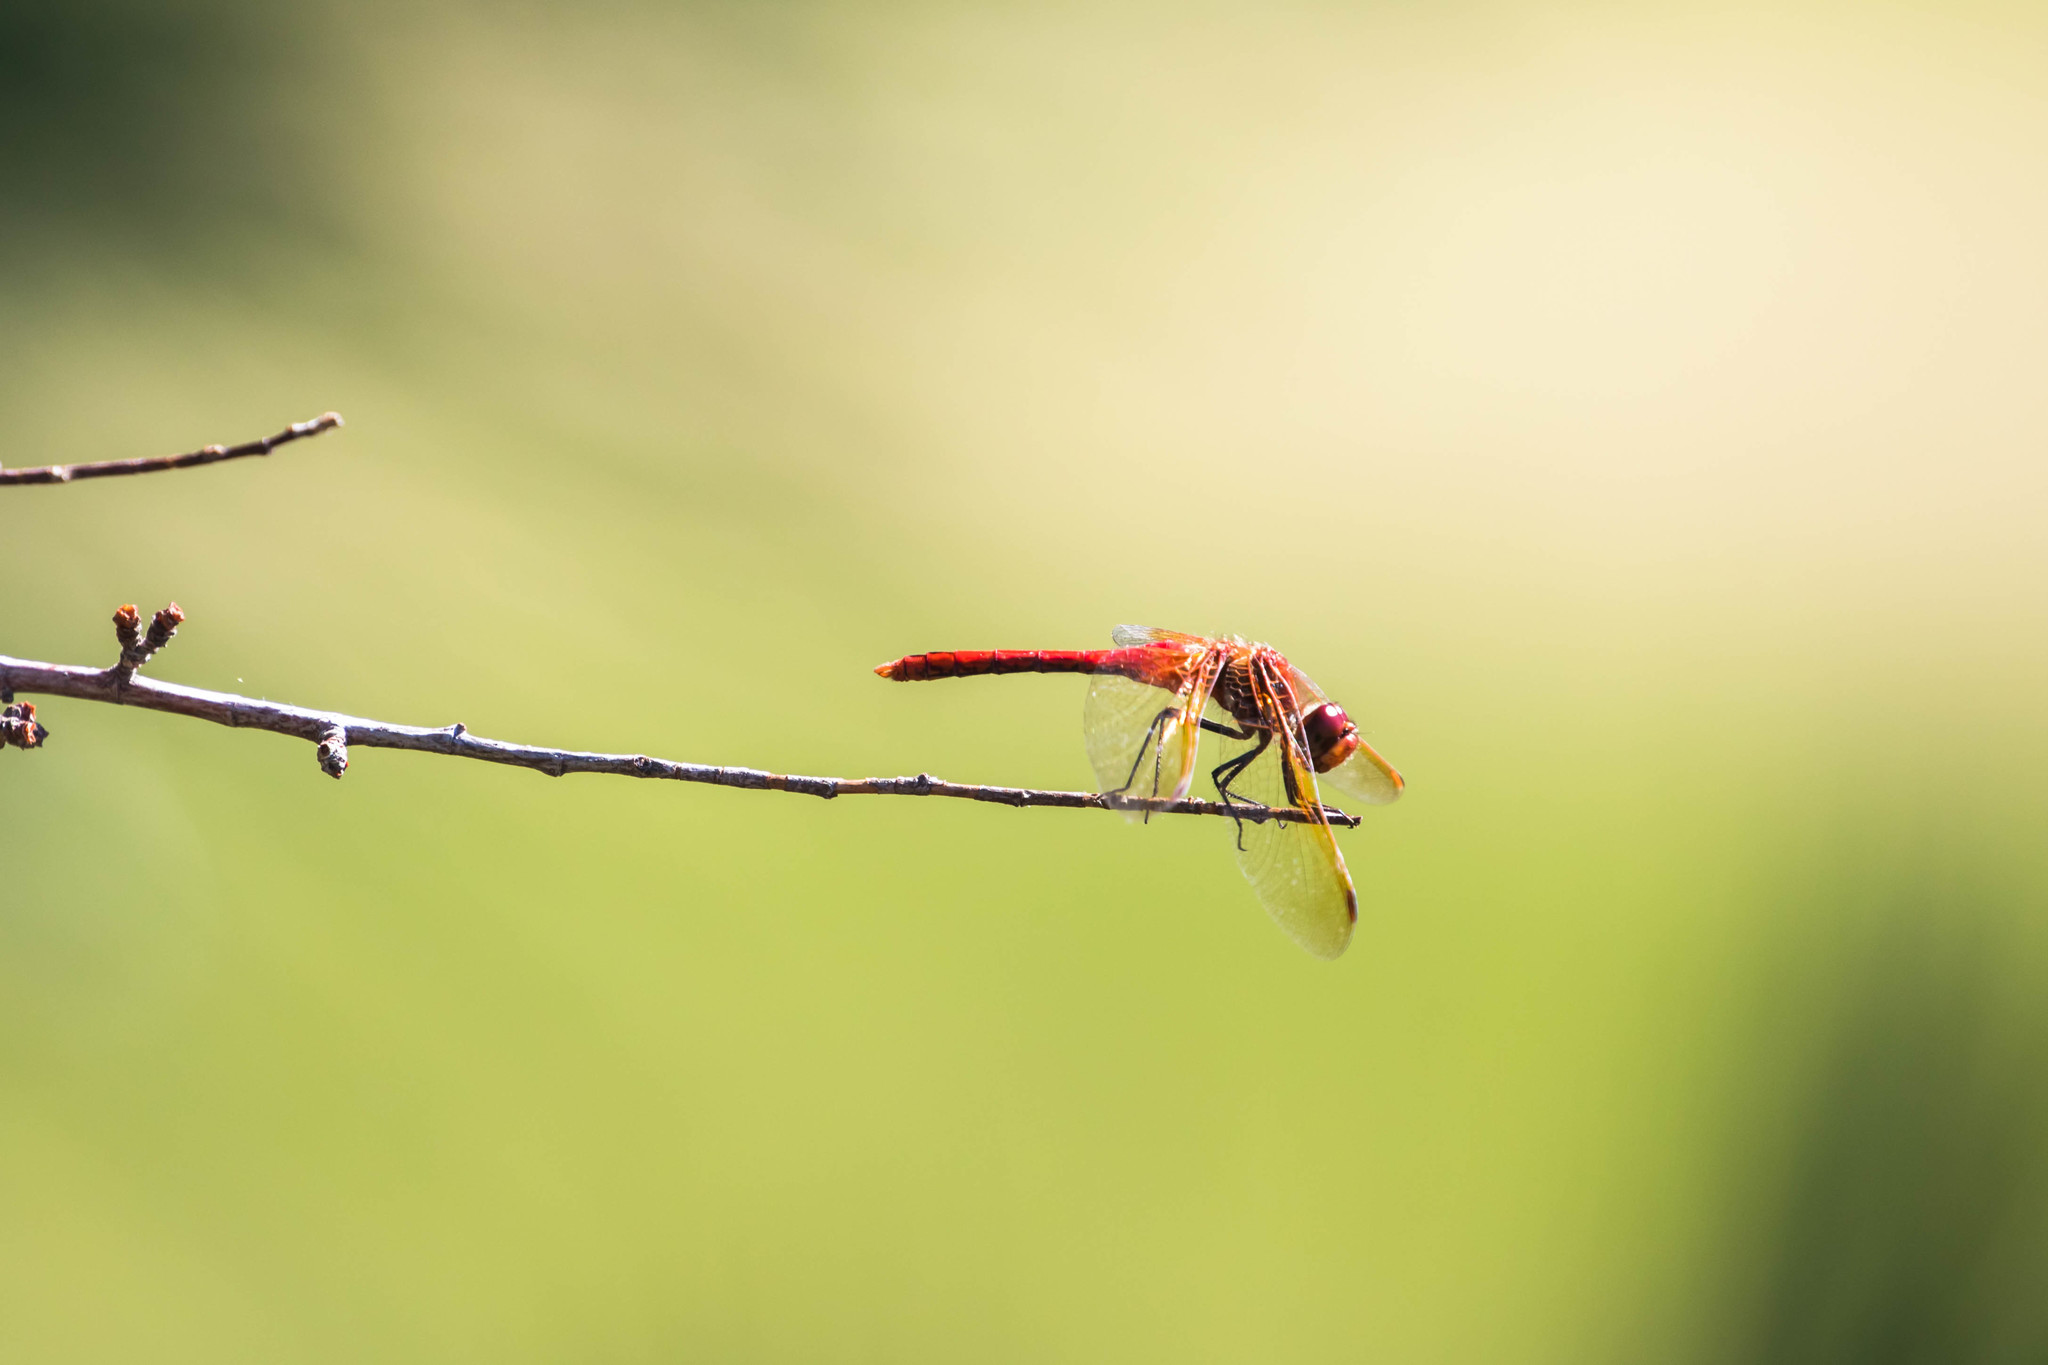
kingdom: Animalia
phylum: Arthropoda
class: Insecta
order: Odonata
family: Libellulidae
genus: Sympetrum
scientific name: Sympetrum madidum
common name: Red-veined meadowhawk
